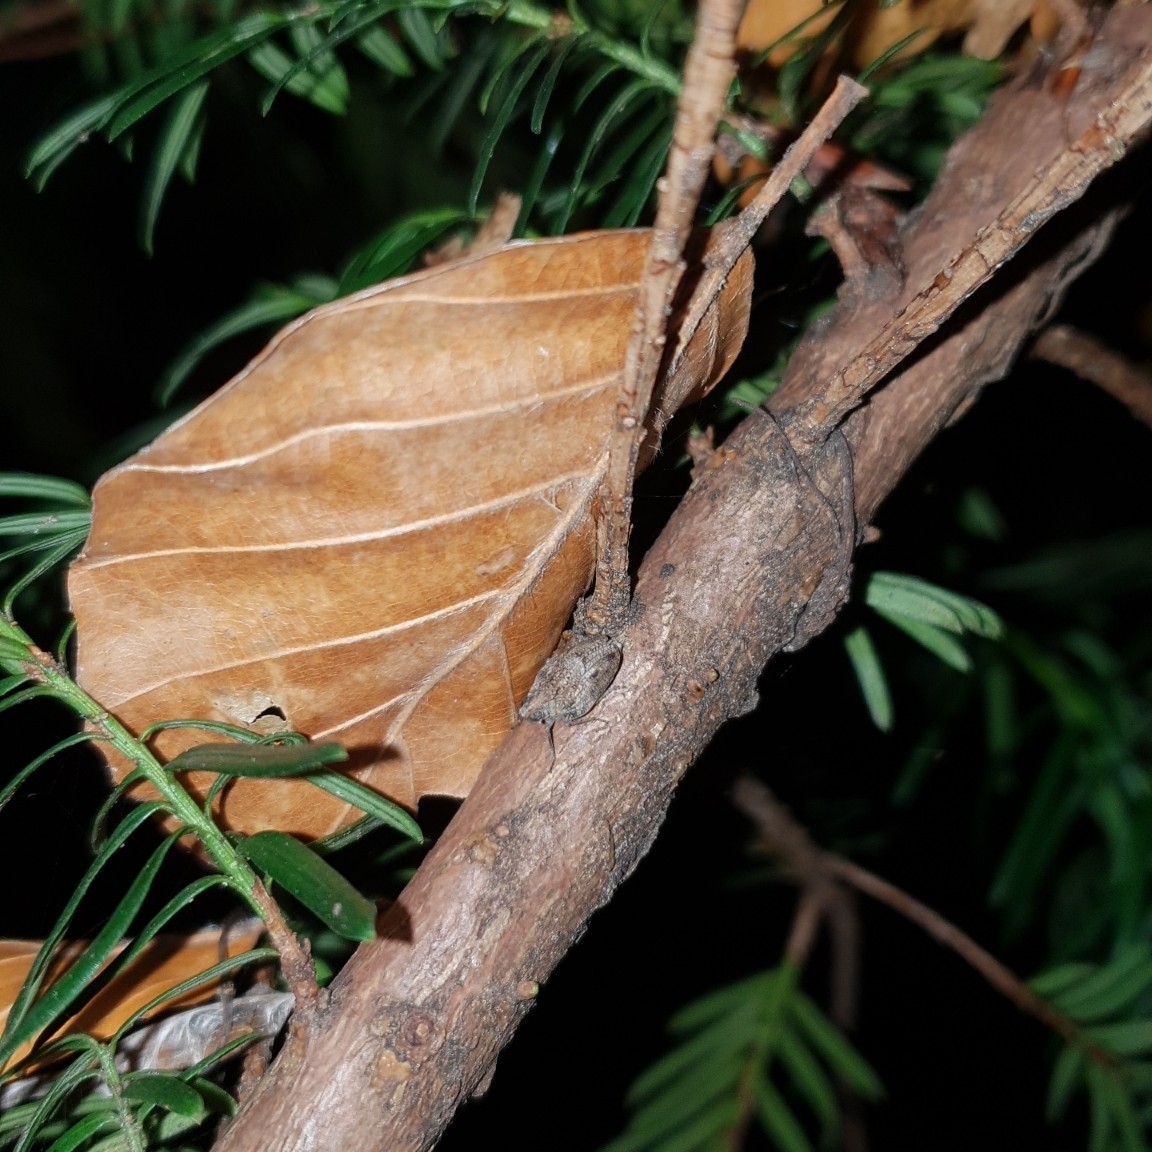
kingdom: Animalia
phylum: Arthropoda
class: Insecta
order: Hemiptera
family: Issidae
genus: Issus
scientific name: Issus coleoptratus
